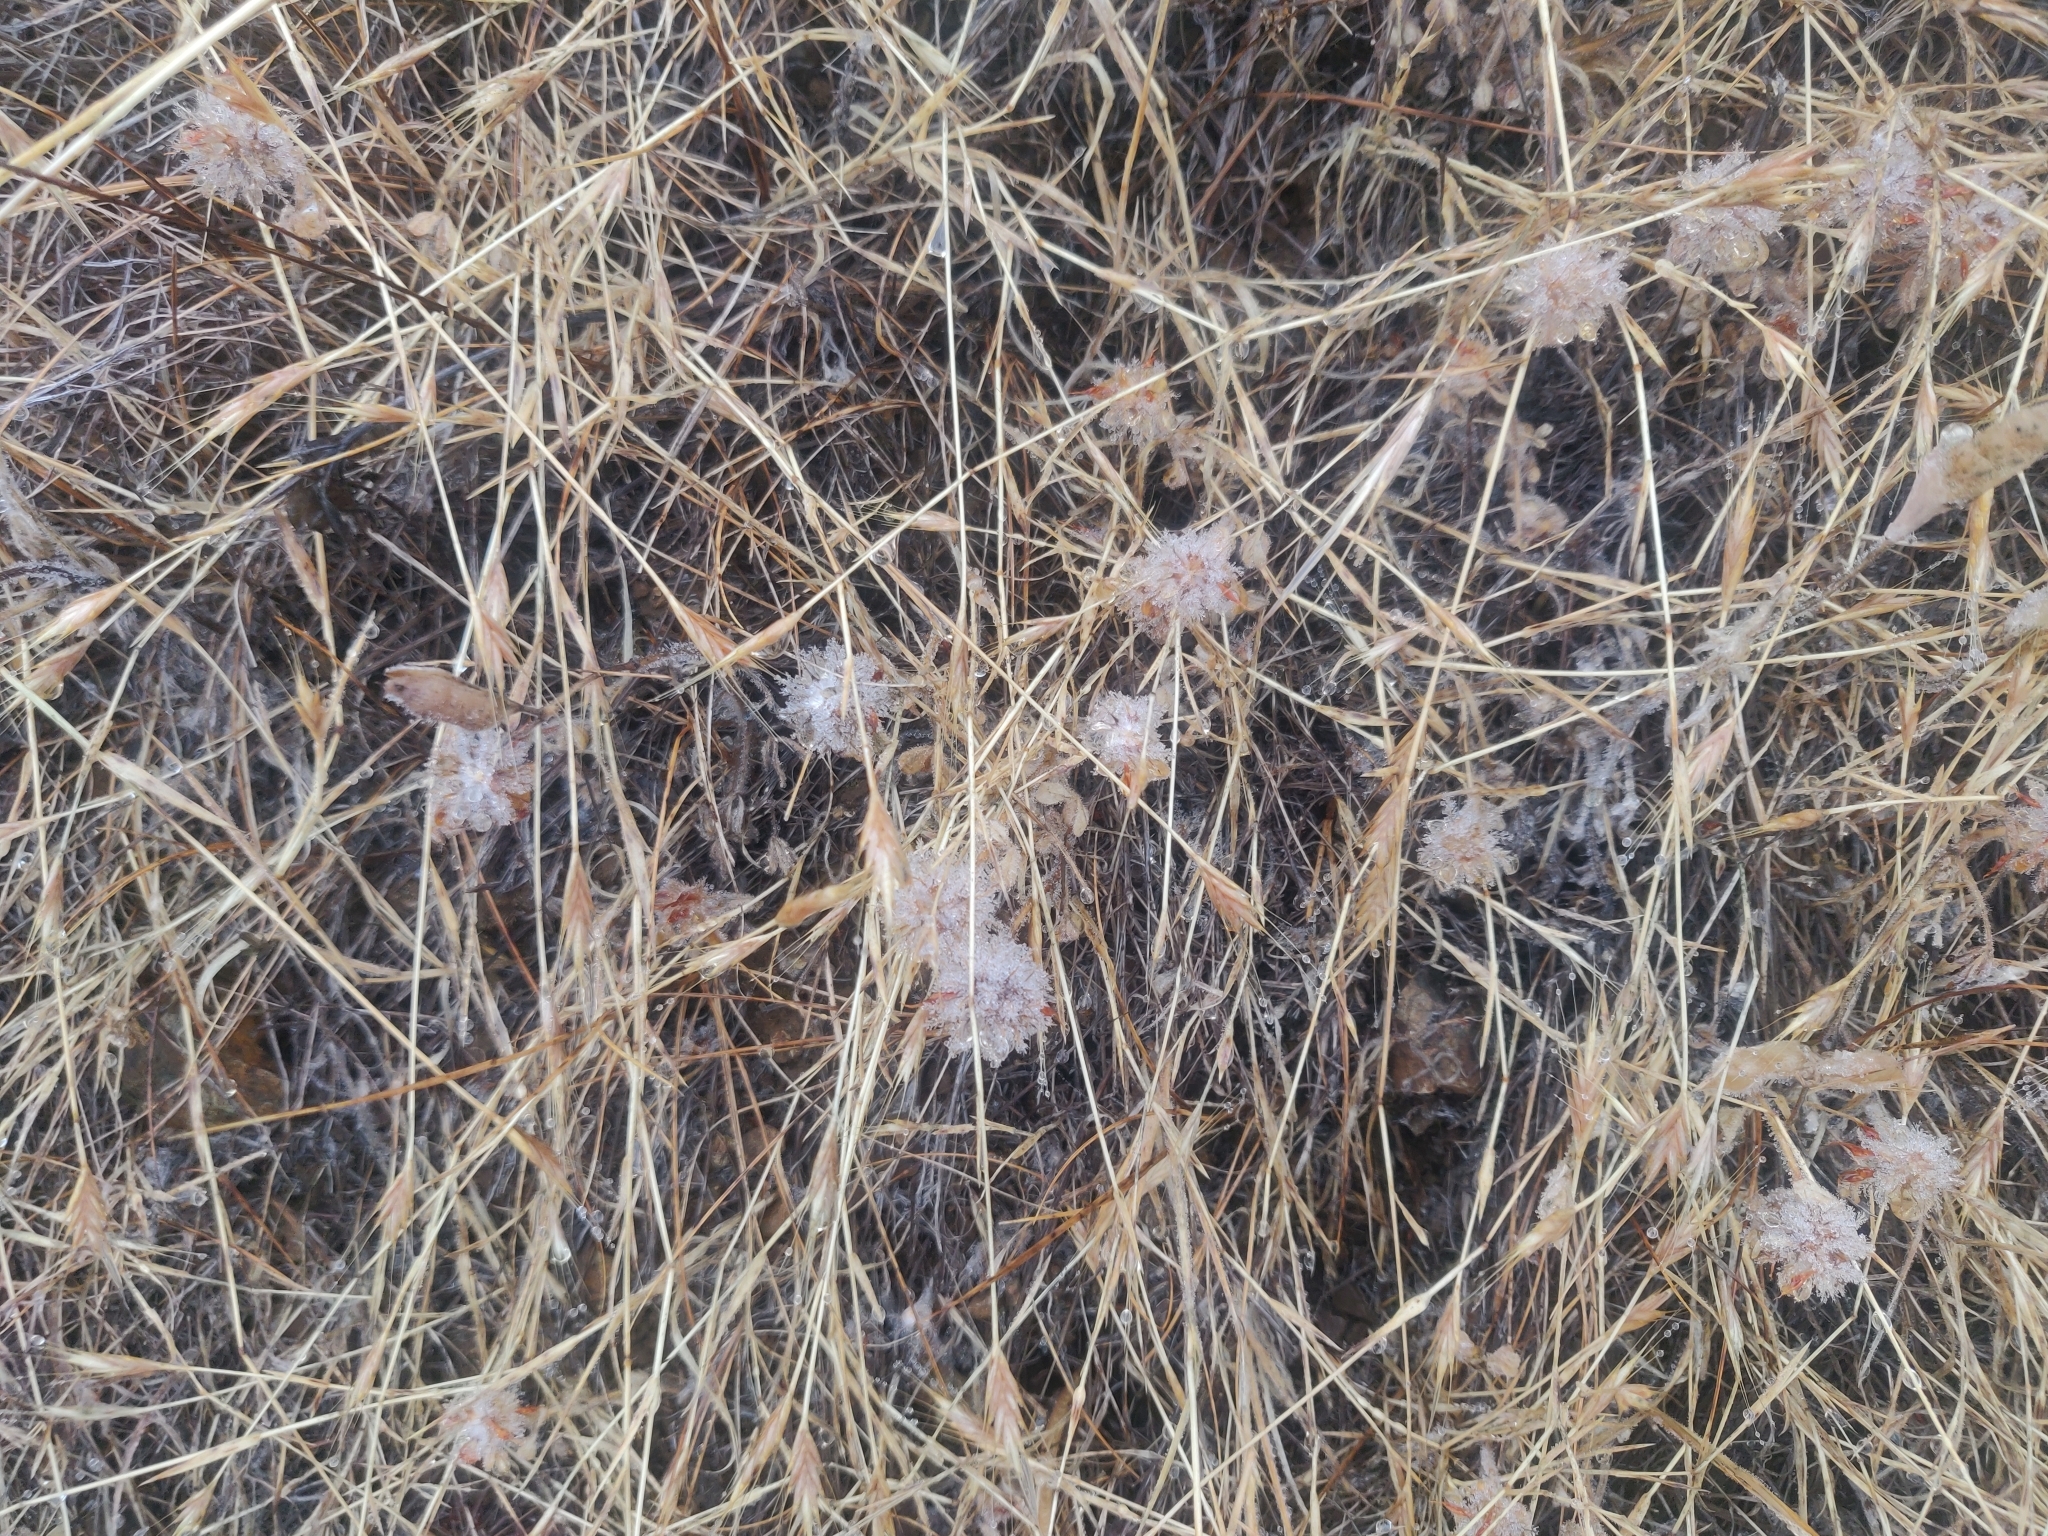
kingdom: Plantae
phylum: Tracheophyta
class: Magnoliopsida
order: Fabales
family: Fabaceae
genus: Trifolium
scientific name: Trifolium hirtum
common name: Rose clover
